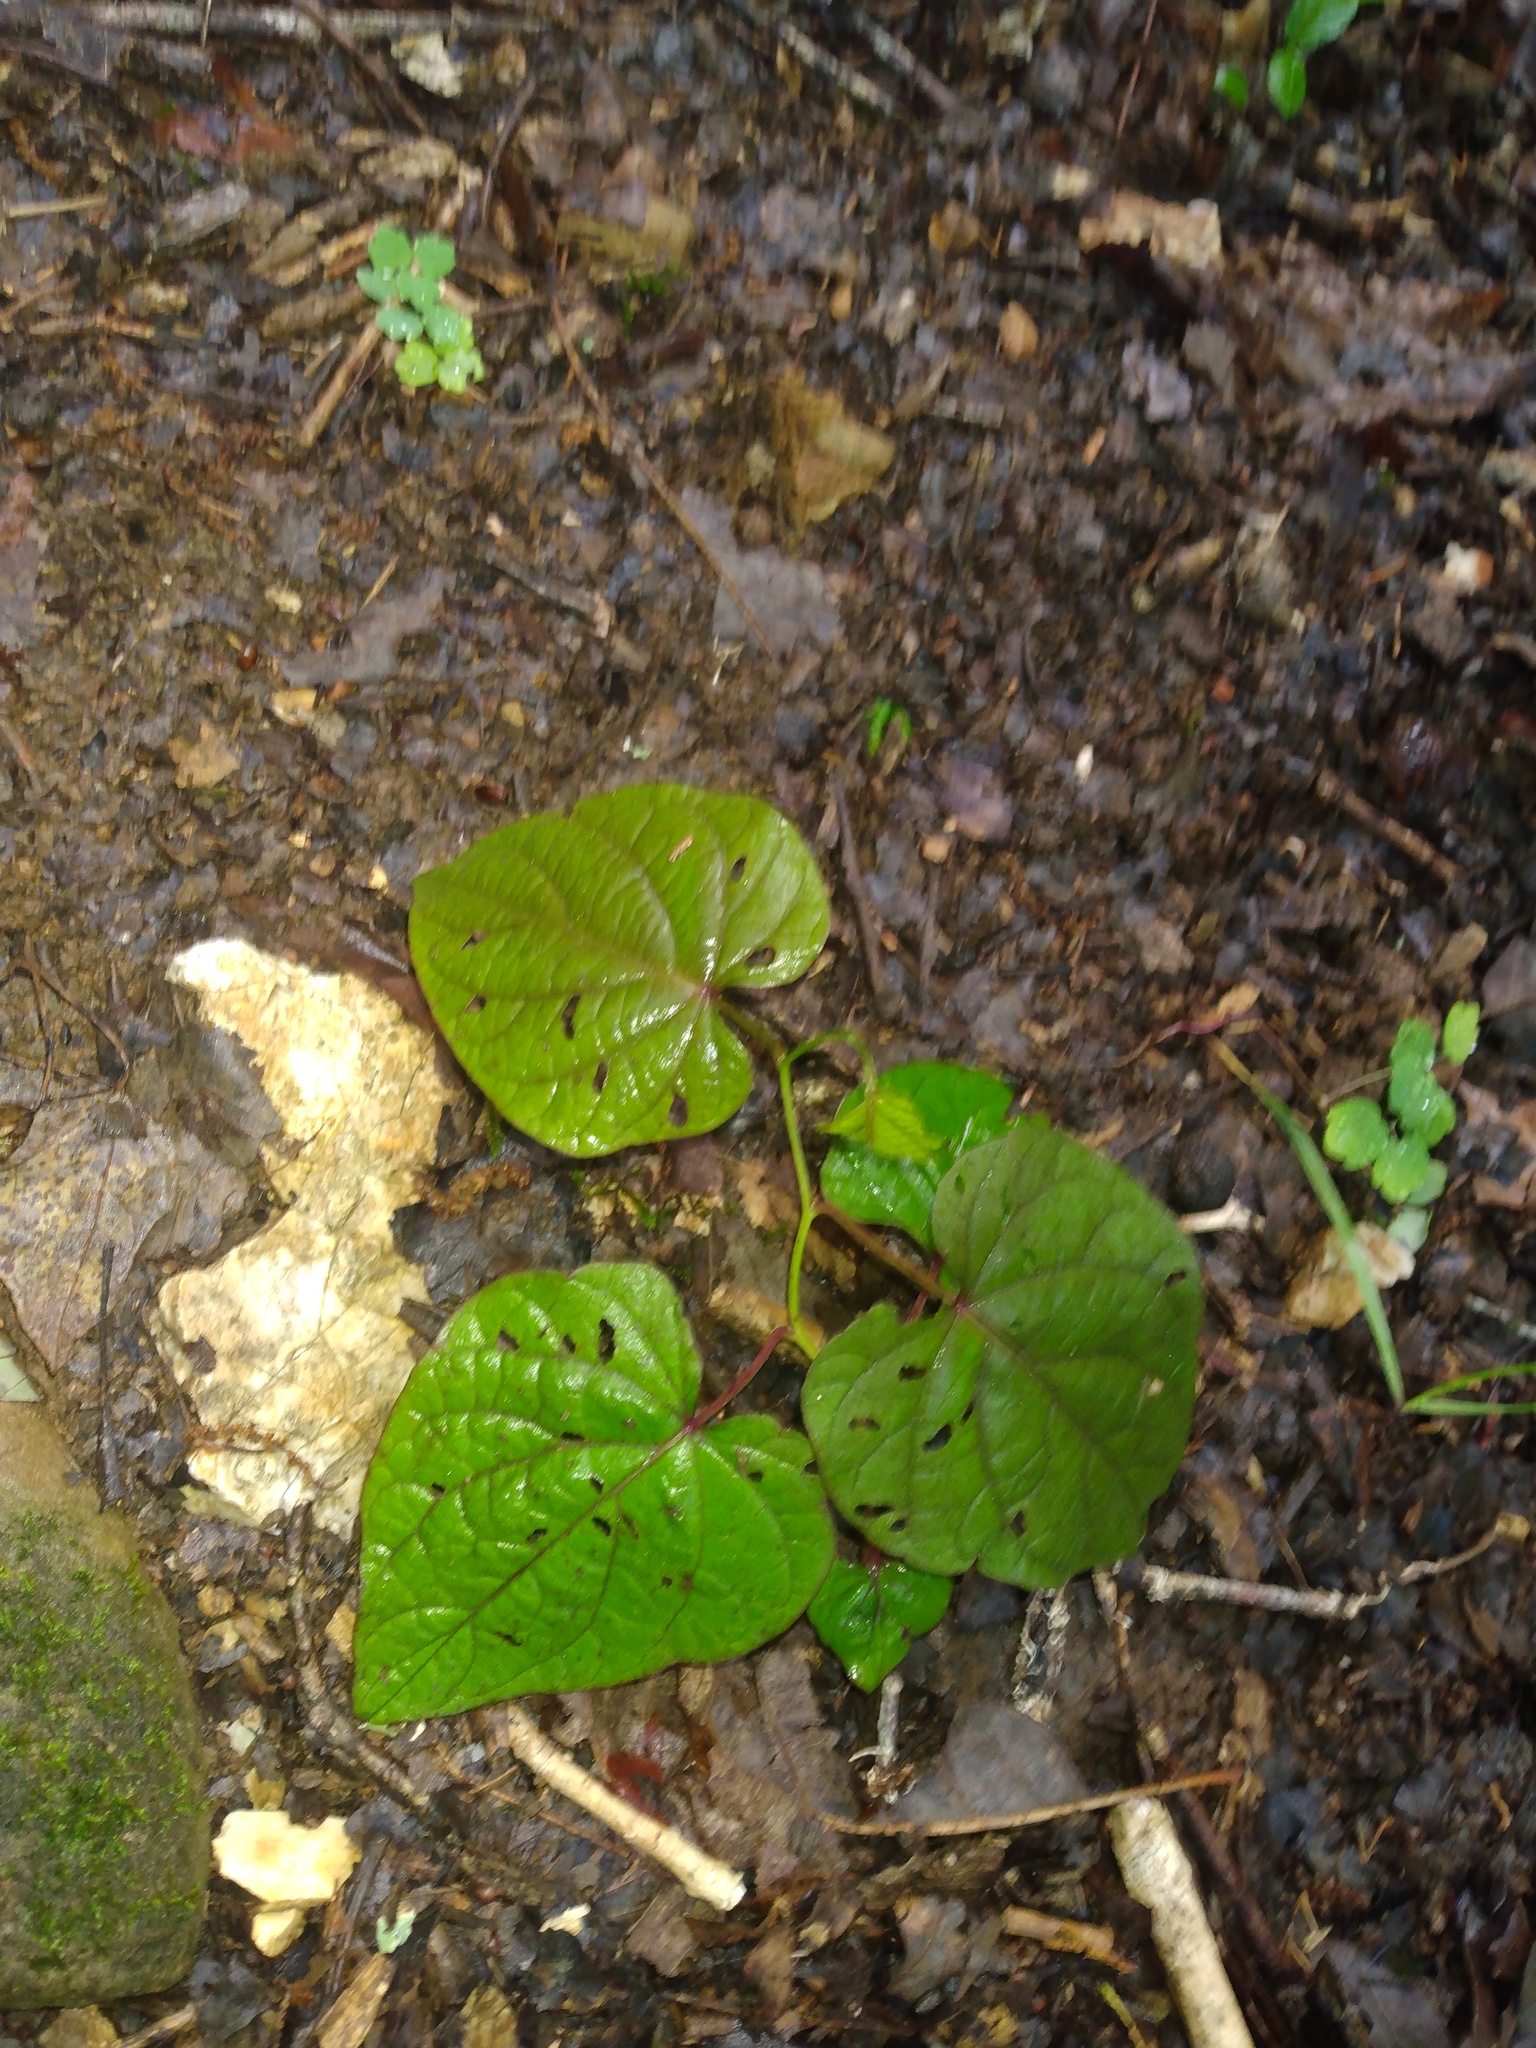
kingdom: Plantae
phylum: Tracheophyta
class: Magnoliopsida
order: Solanales
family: Convolvulaceae
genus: Ipomoea
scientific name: Ipomoea pandurata
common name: Man-of-the-earth
